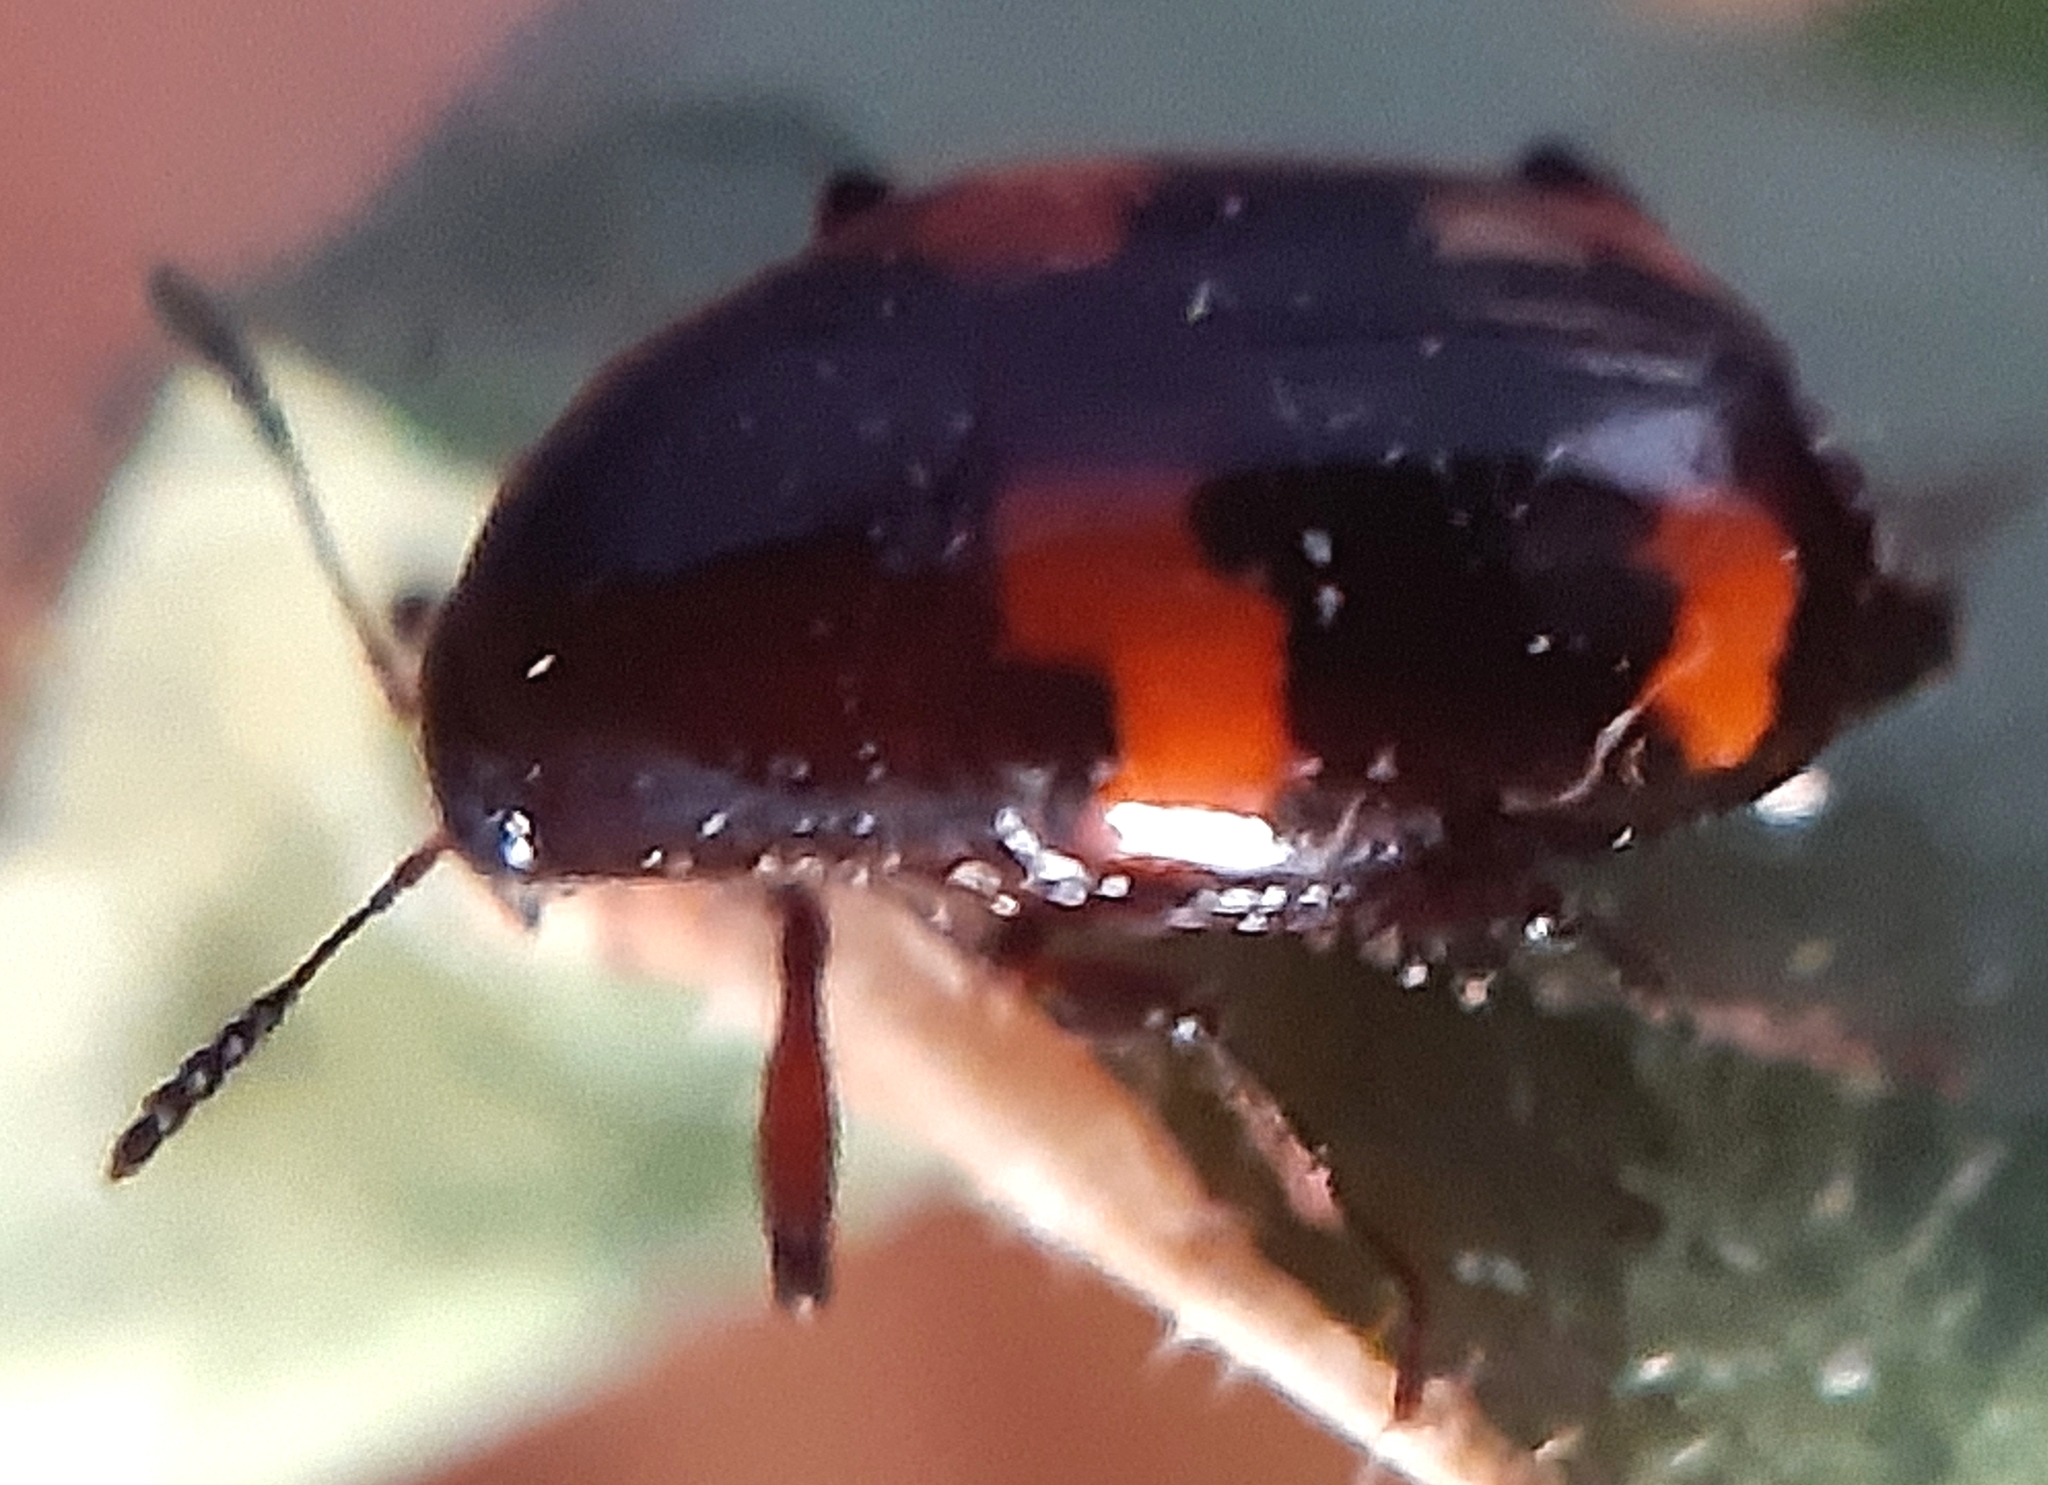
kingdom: Animalia
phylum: Arthropoda
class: Insecta
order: Coleoptera
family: Staphylinidae
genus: Scaphidium
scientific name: Scaphidium quadrimaculatum
